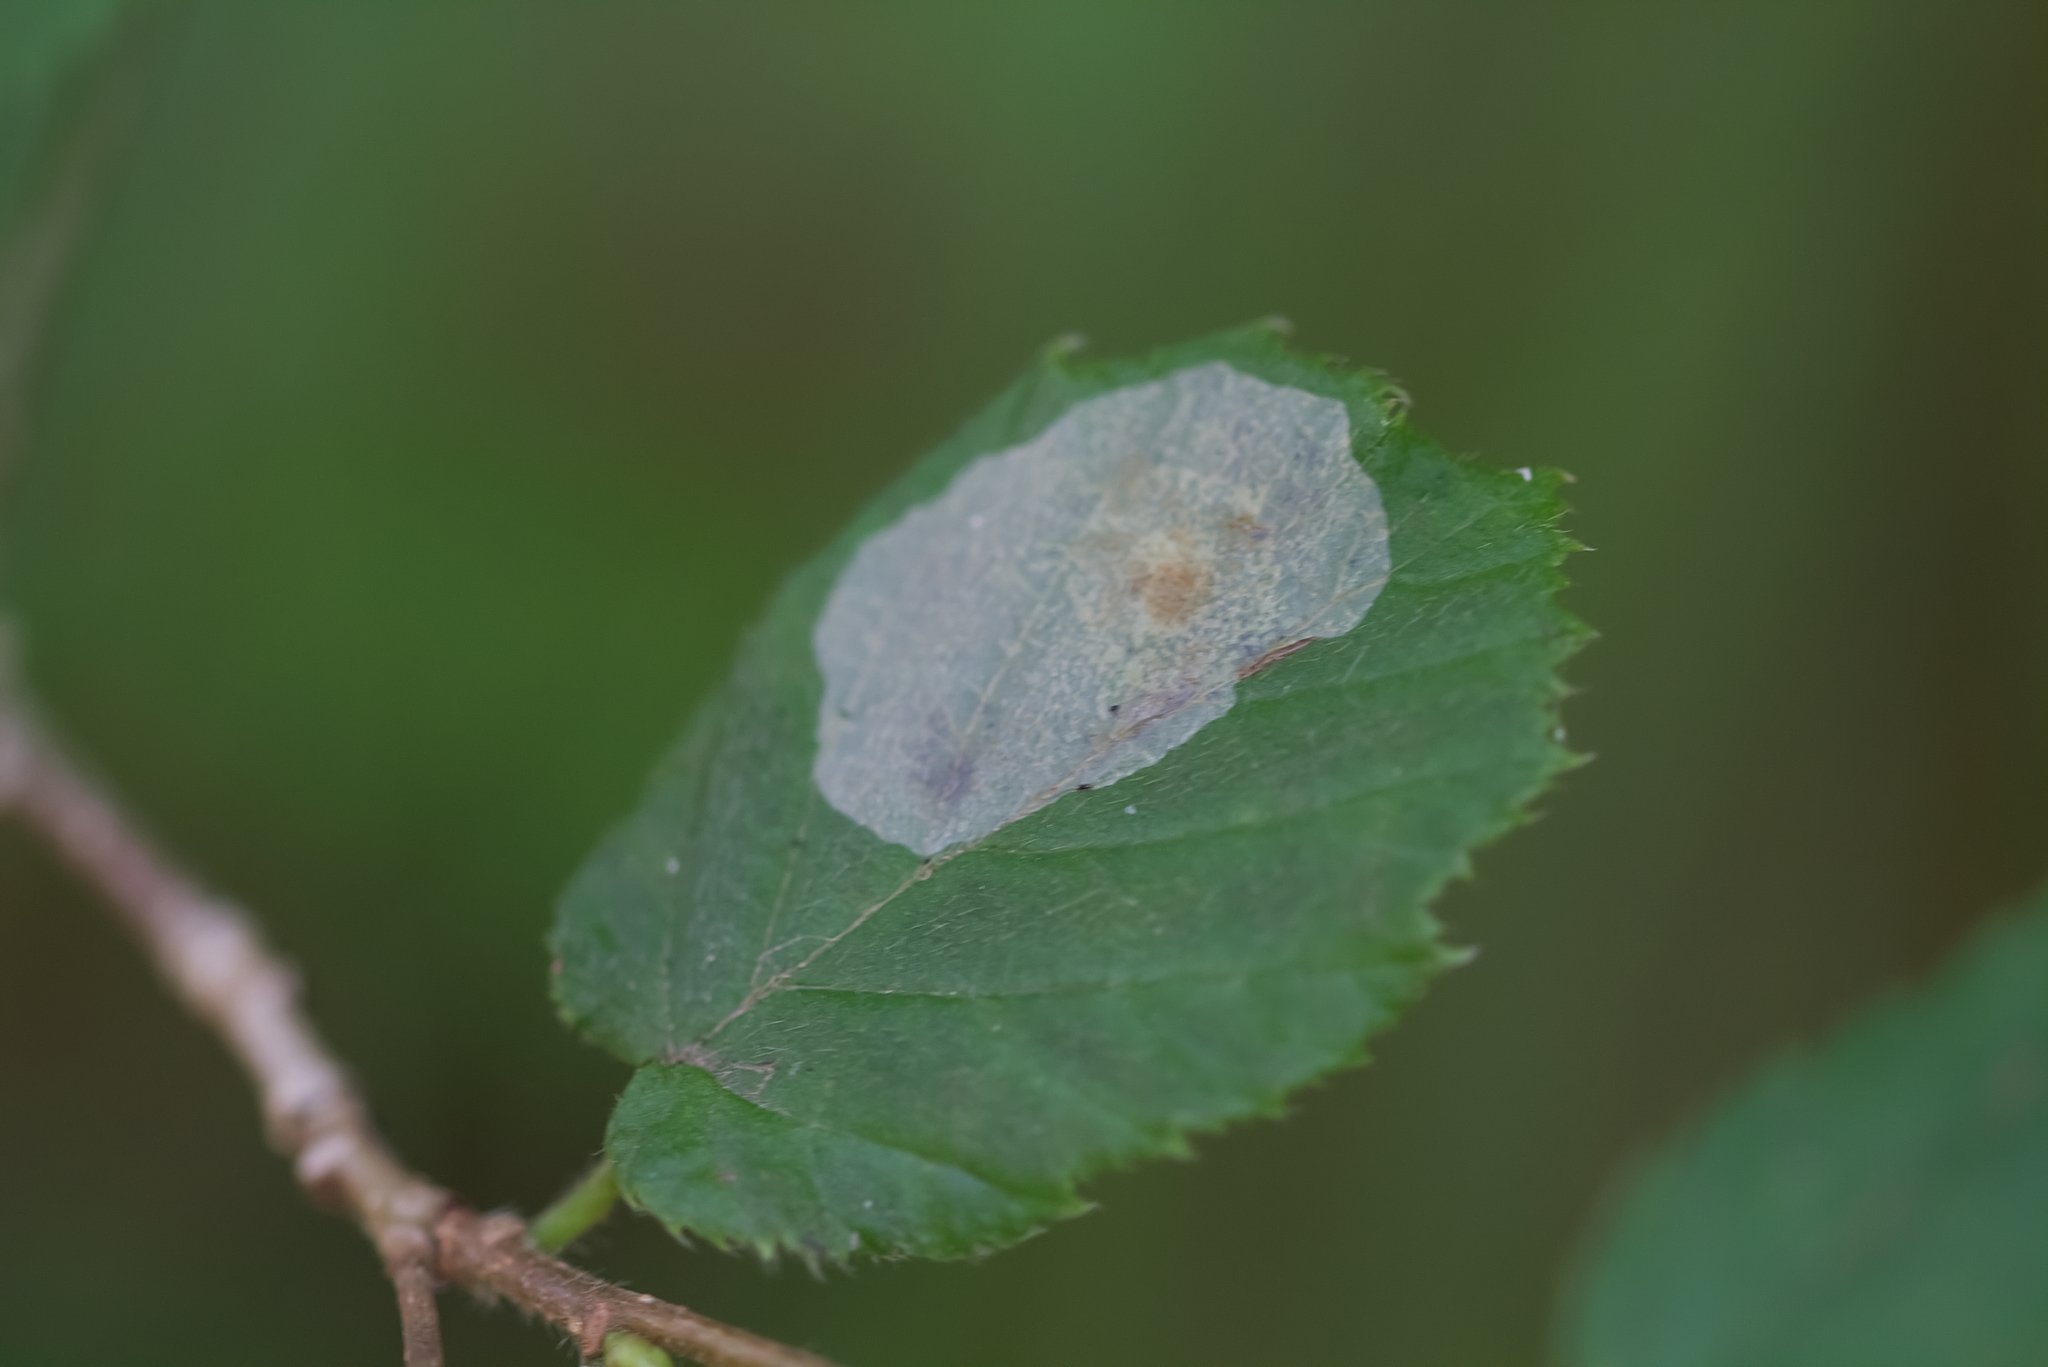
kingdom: Animalia
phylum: Arthropoda
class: Insecta
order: Lepidoptera
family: Gracillariidae
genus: Phyllonorycter
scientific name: Phyllonorycter coryli
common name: Nut-leaf blister moth
